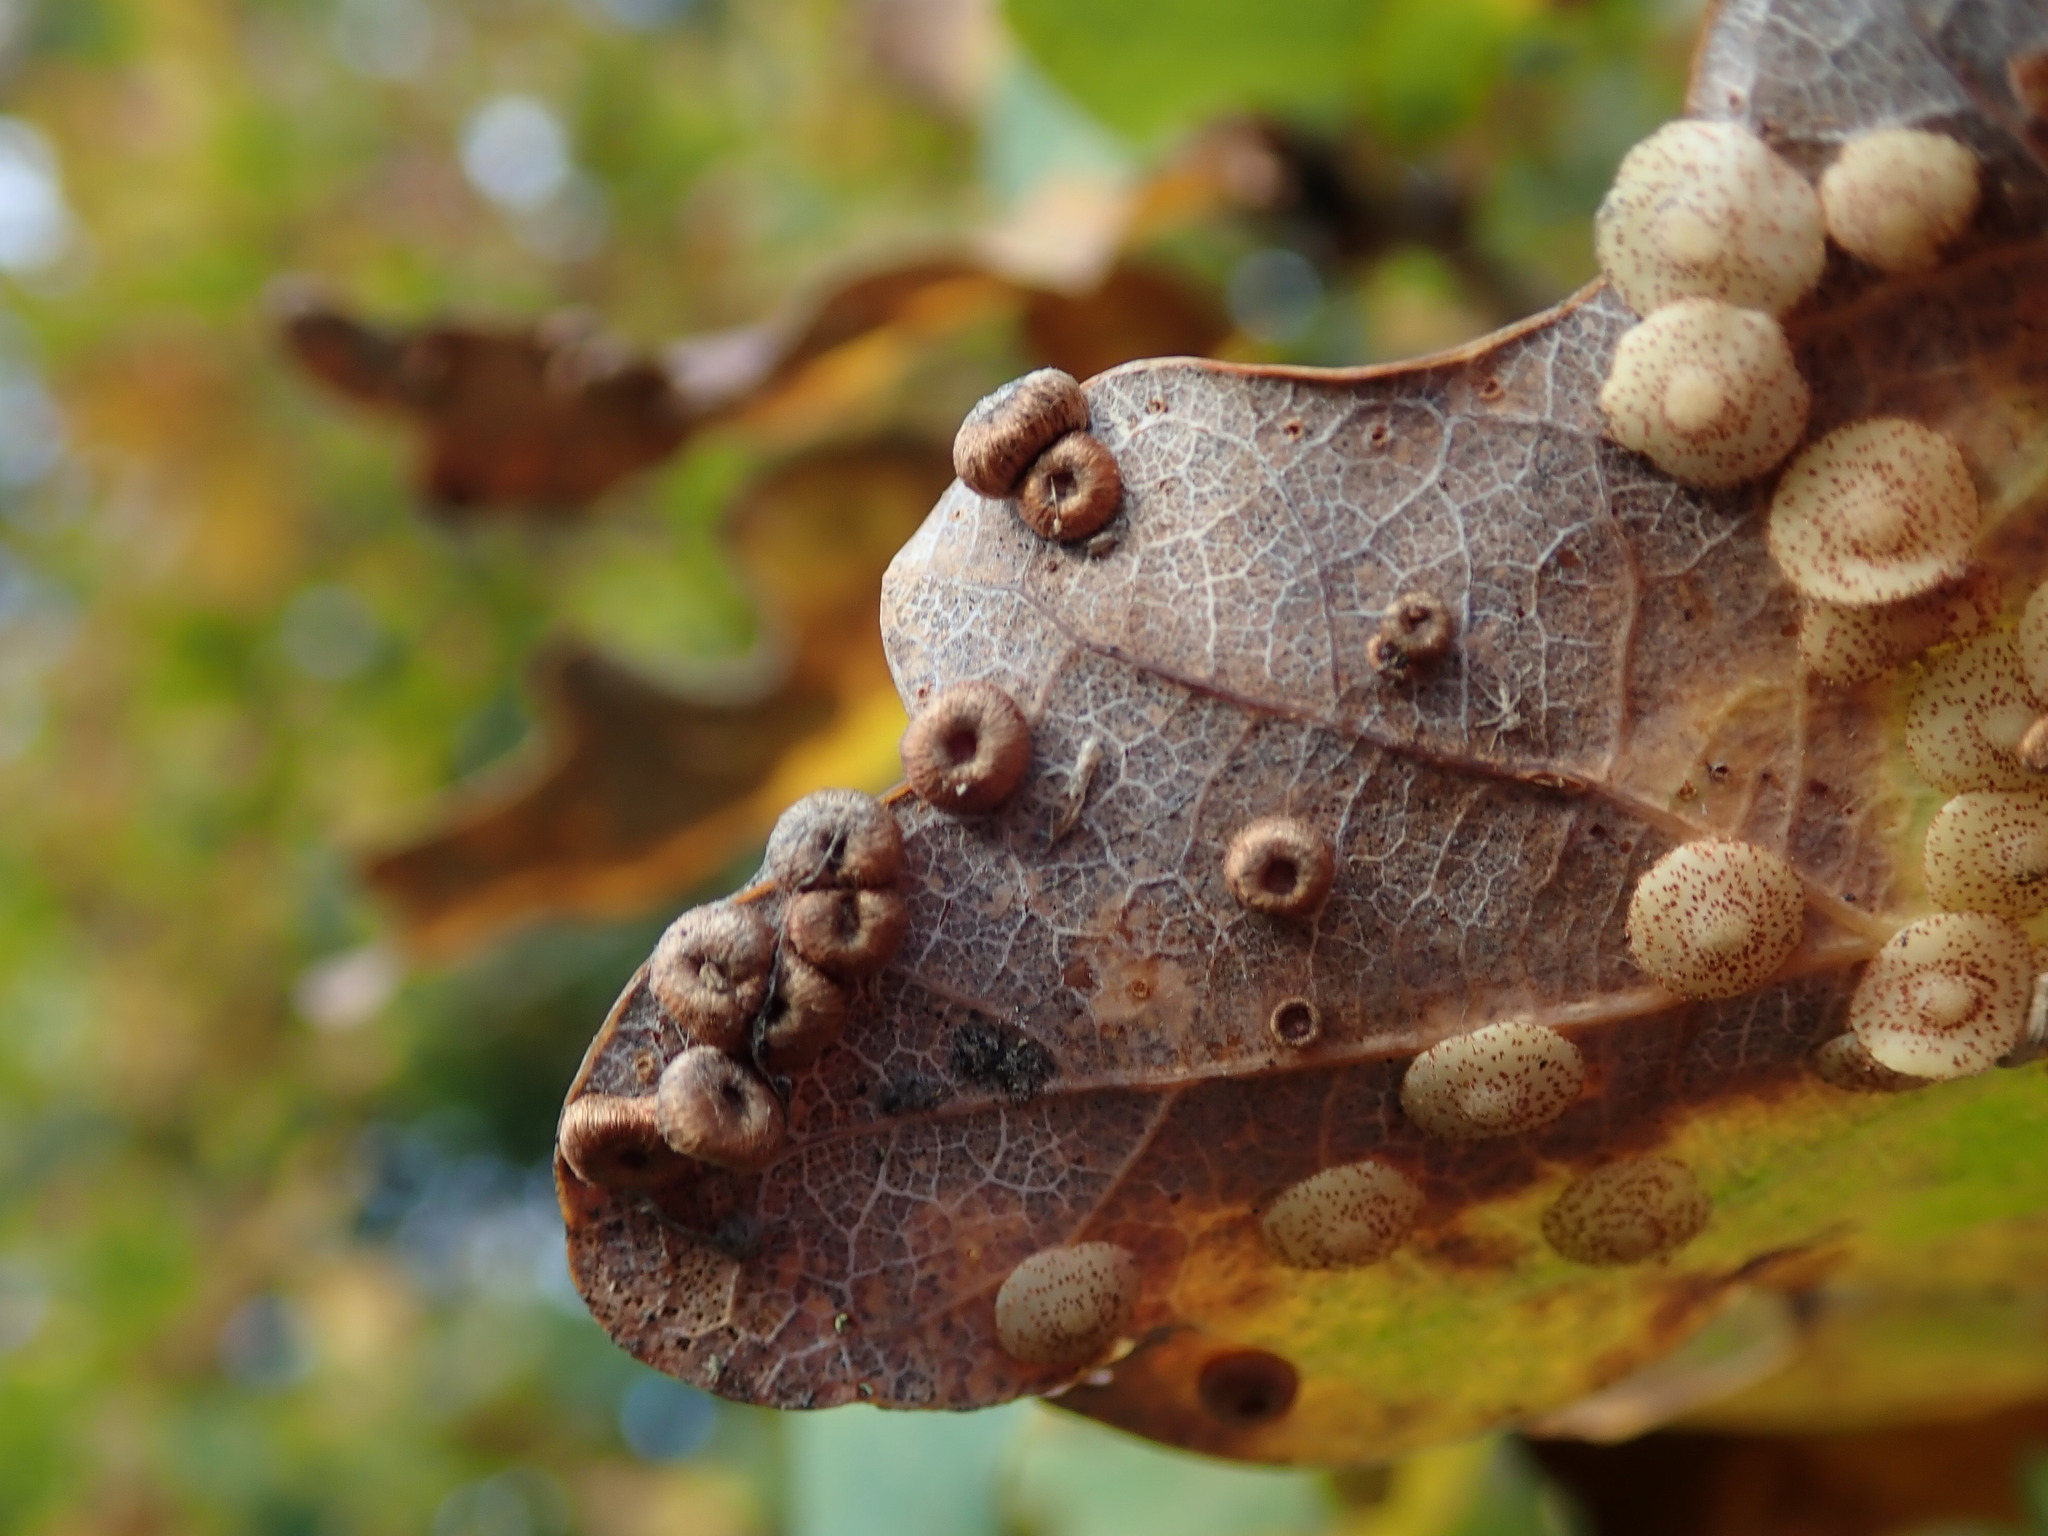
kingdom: Animalia
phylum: Arthropoda
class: Insecta
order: Hymenoptera
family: Cynipidae
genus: Neuroterus
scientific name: Neuroterus numismalis
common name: Silk-button spangle gall
